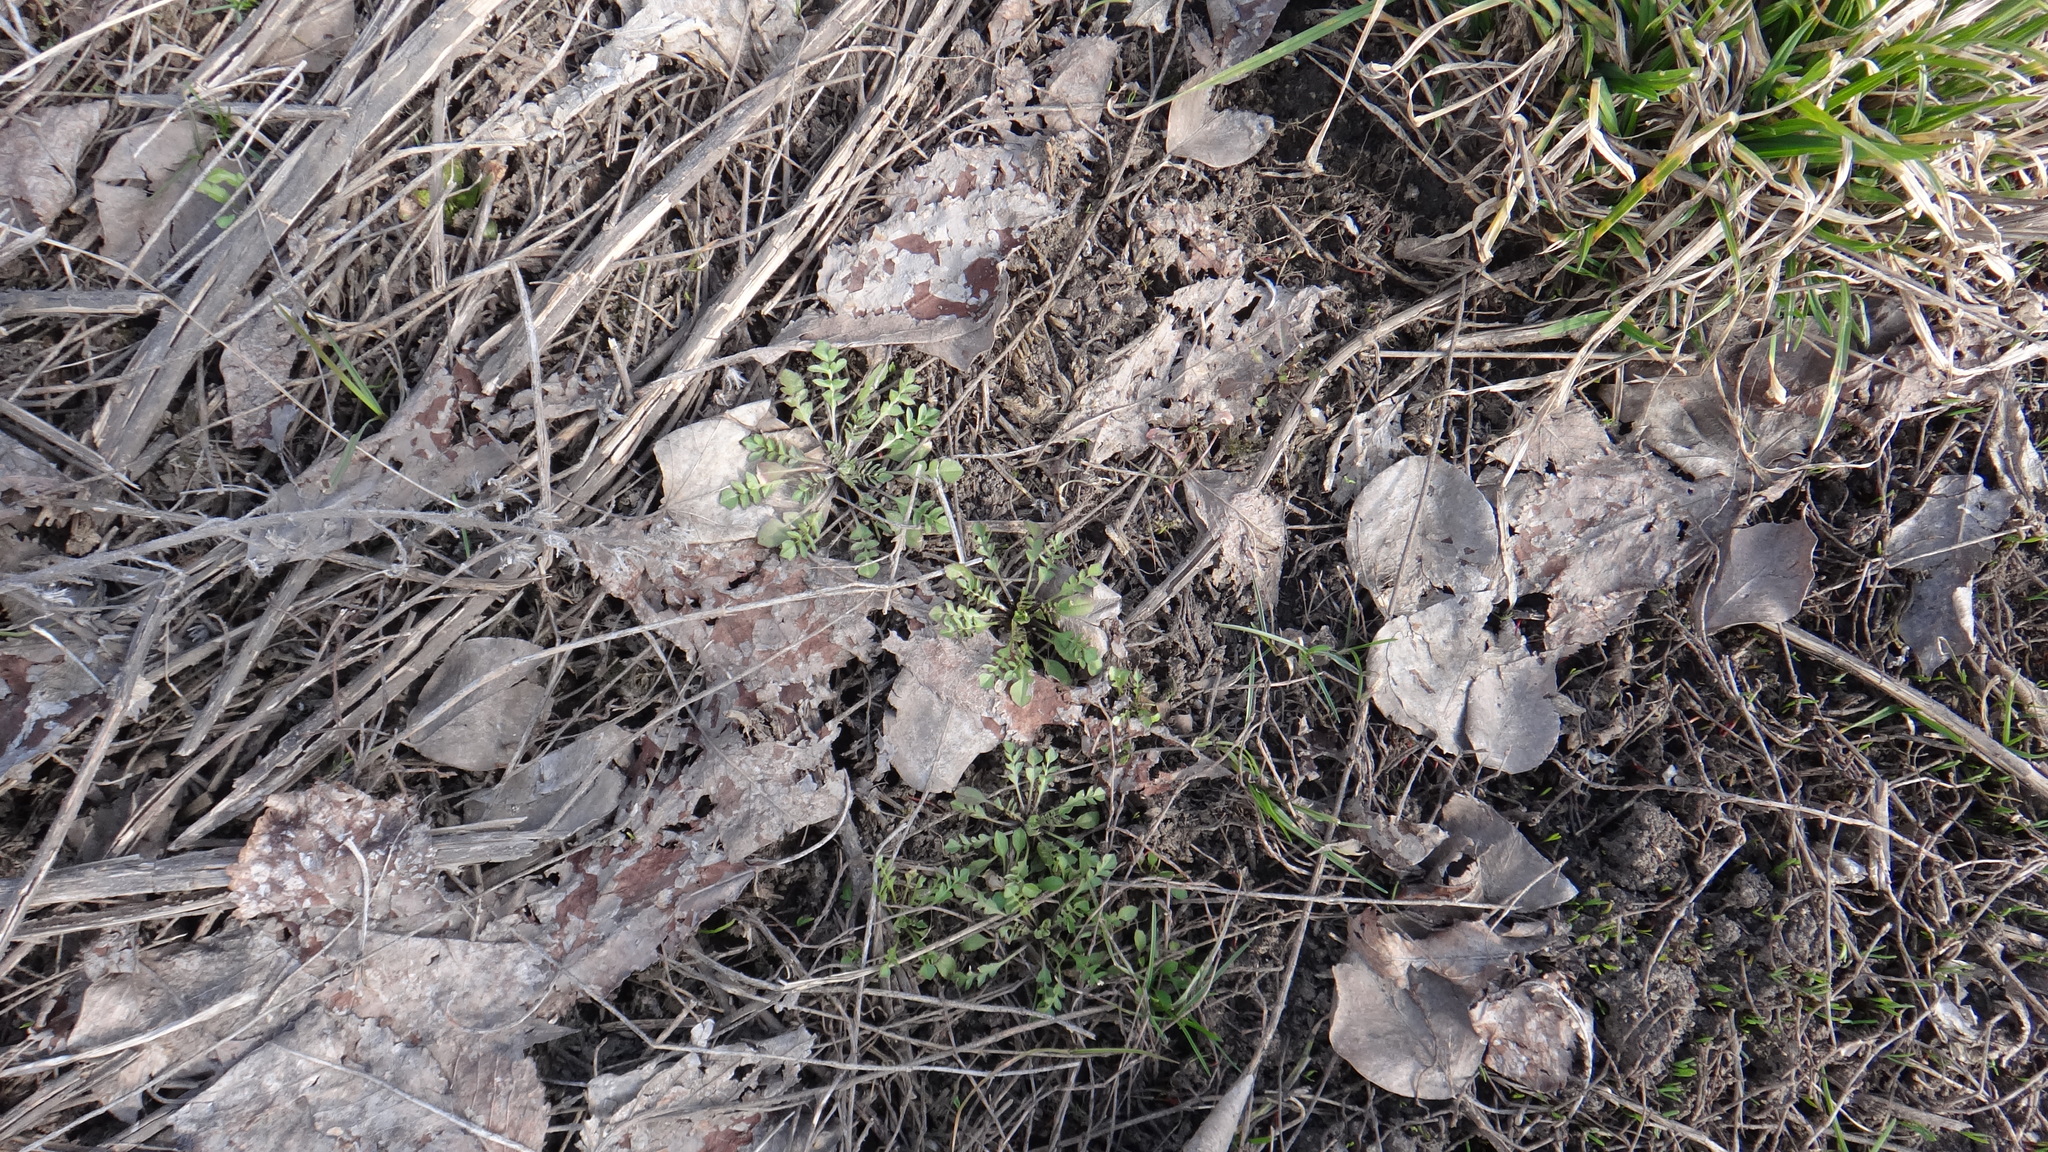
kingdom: Plantae
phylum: Tracheophyta
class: Magnoliopsida
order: Brassicales
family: Brassicaceae
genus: Capsella
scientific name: Capsella bursa-pastoris
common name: Shepherd's purse
